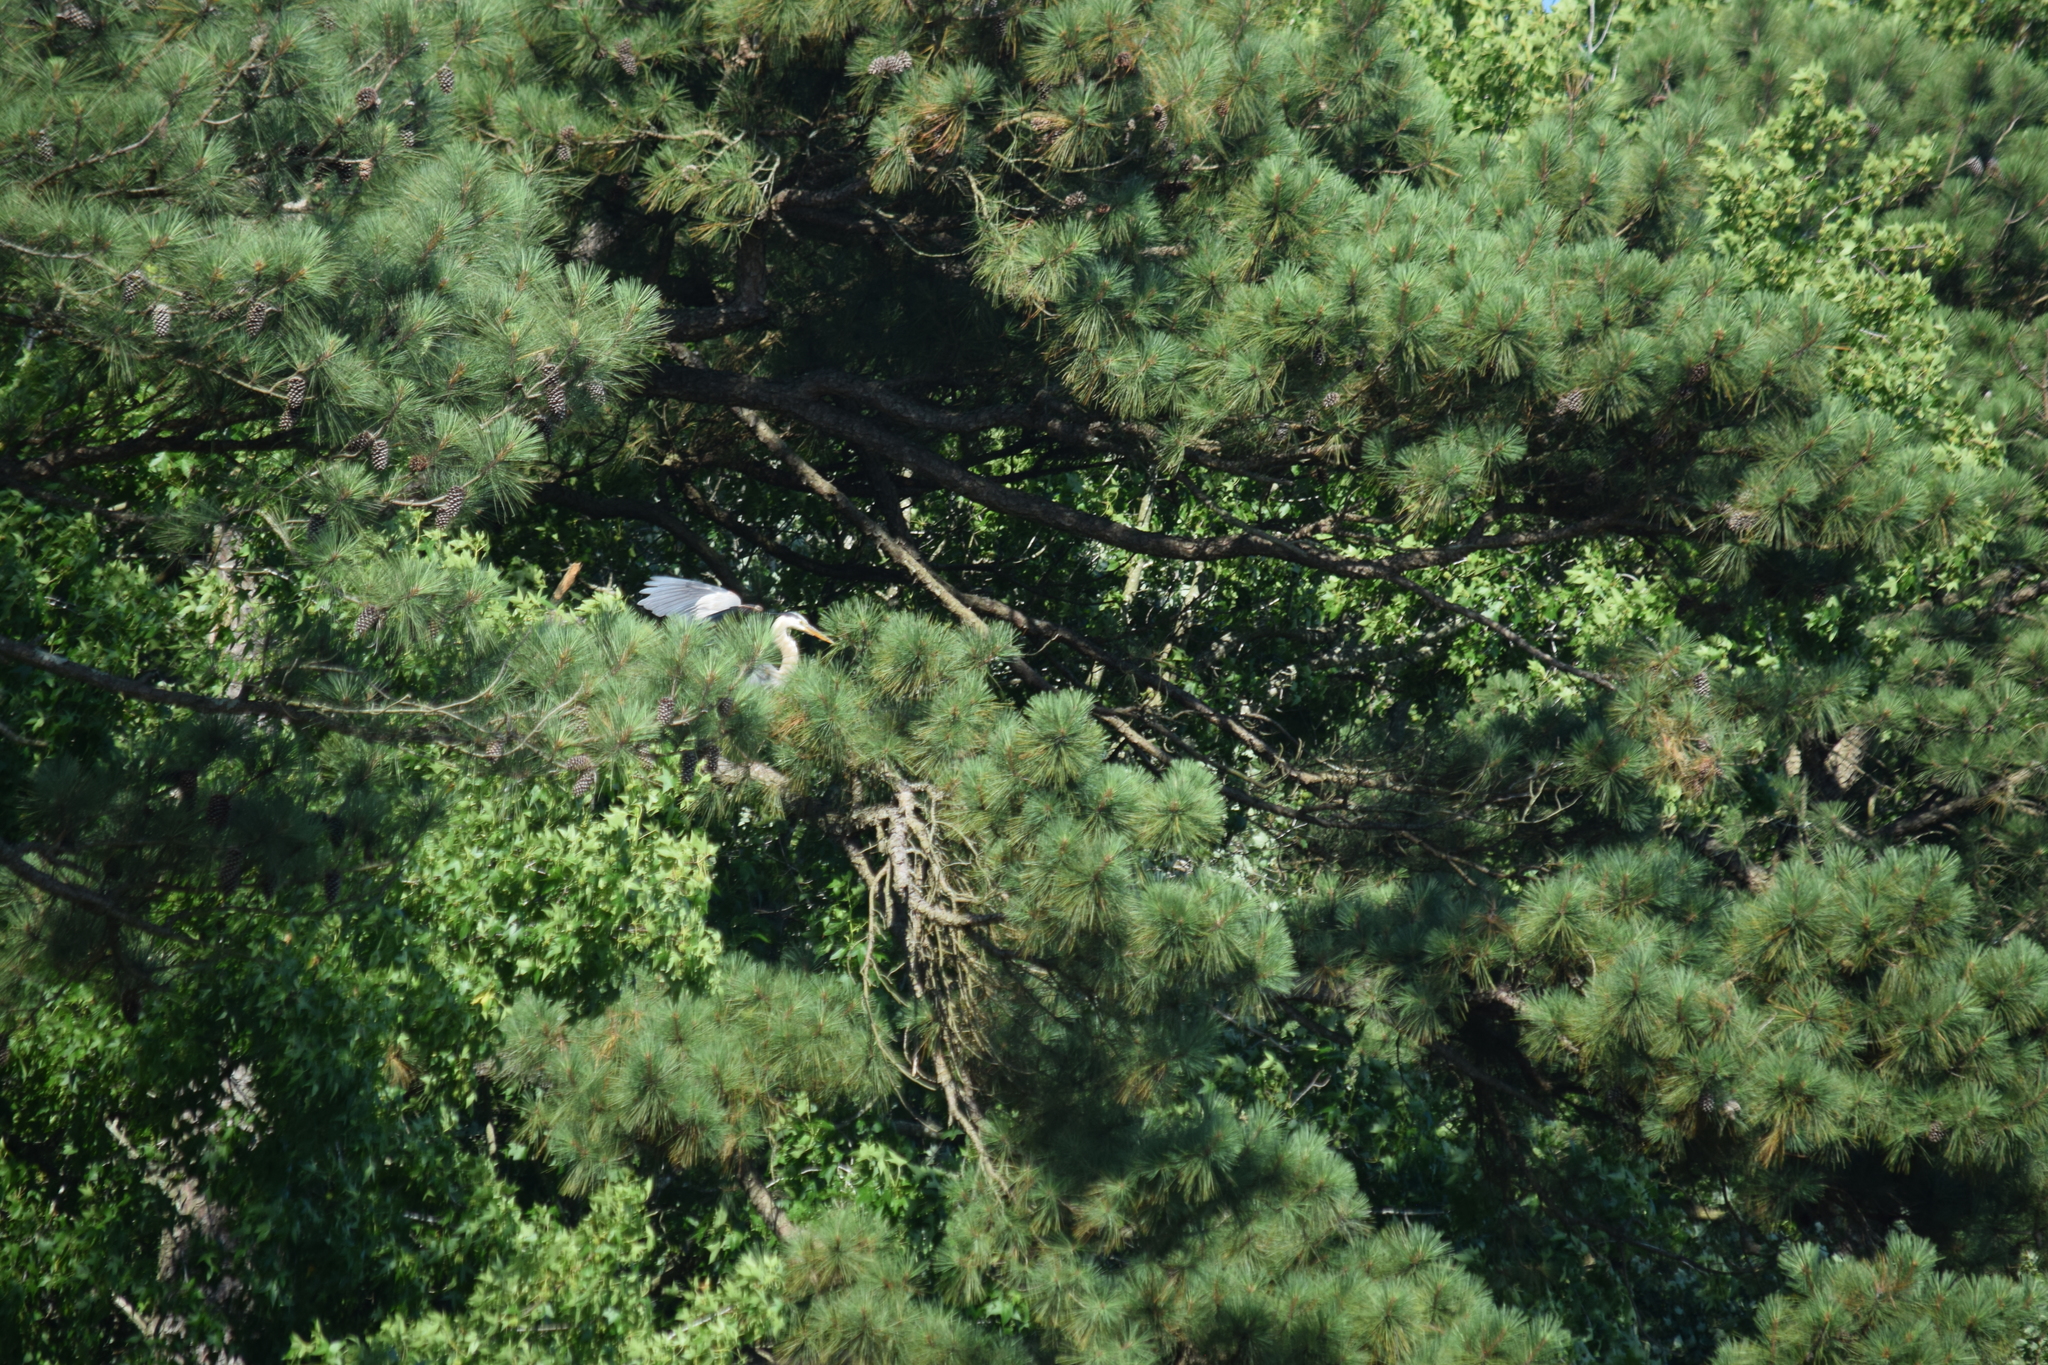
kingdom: Animalia
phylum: Chordata
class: Aves
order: Pelecaniformes
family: Ardeidae
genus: Ardea
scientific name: Ardea herodias
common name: Great blue heron
